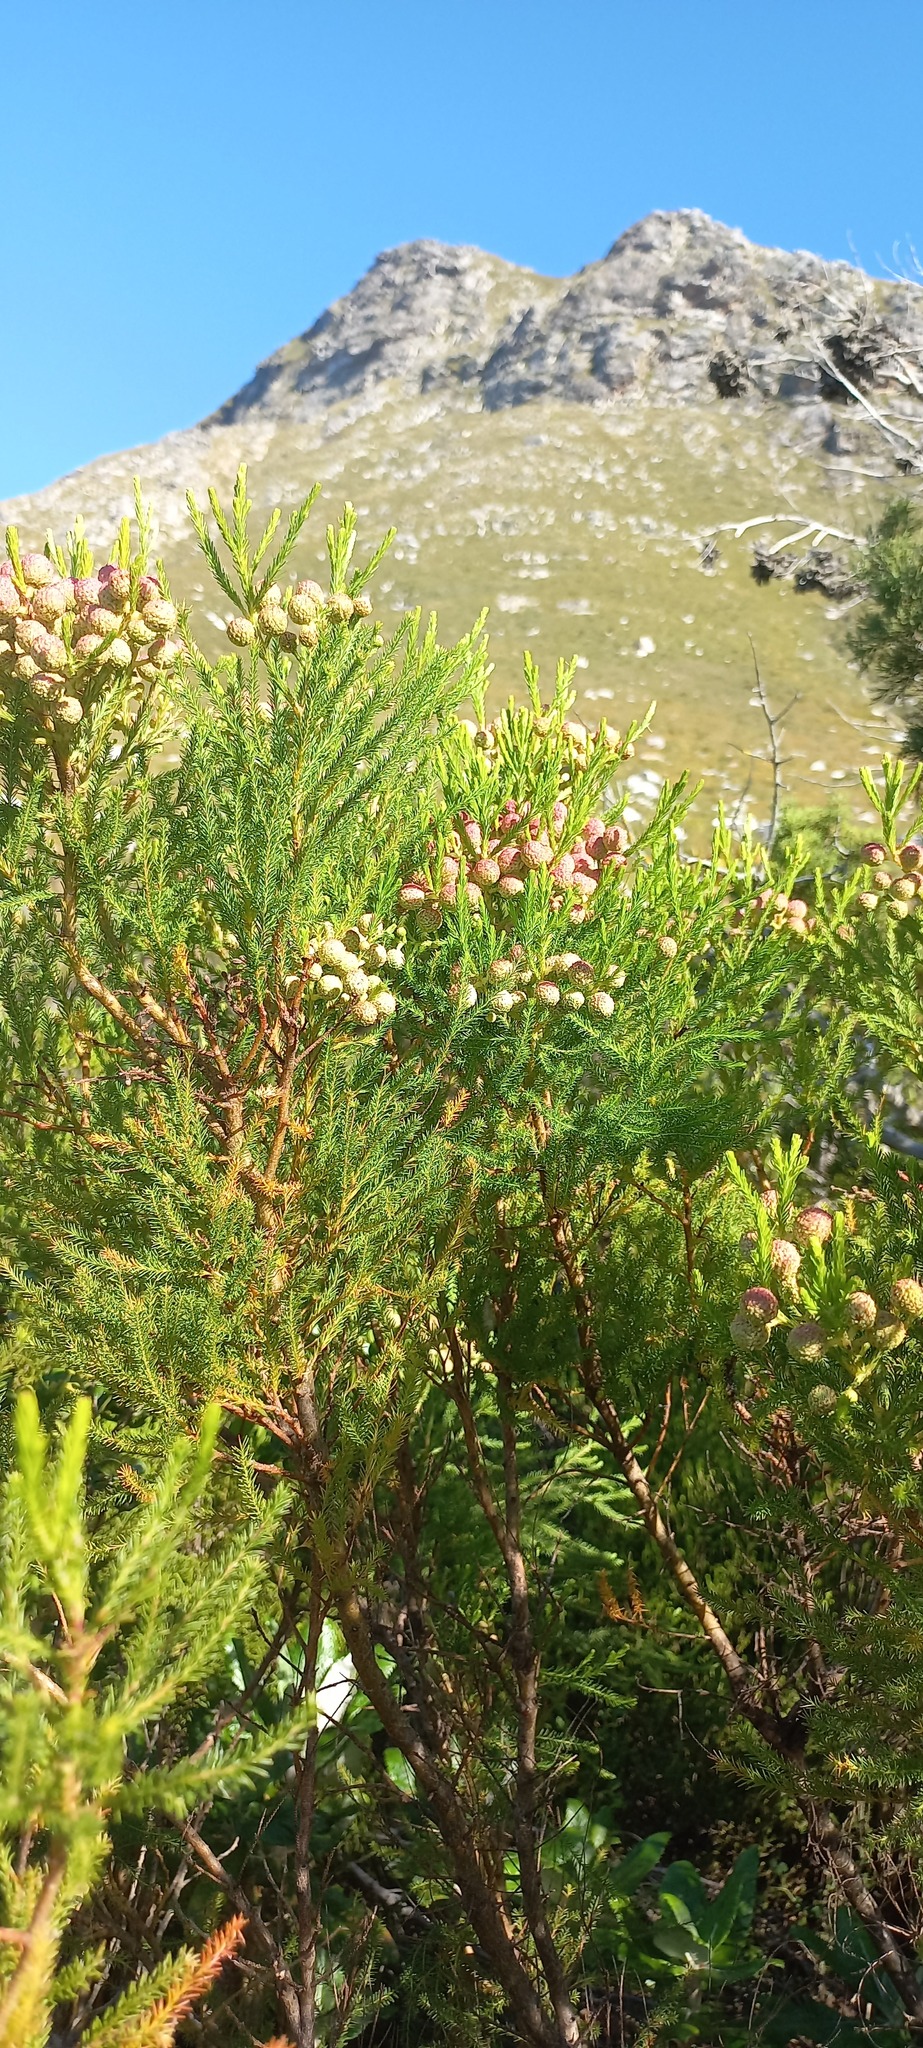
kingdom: Plantae
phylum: Tracheophyta
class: Magnoliopsida
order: Bruniales
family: Bruniaceae
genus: Berzelia
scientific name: Berzelia lanuginosa
